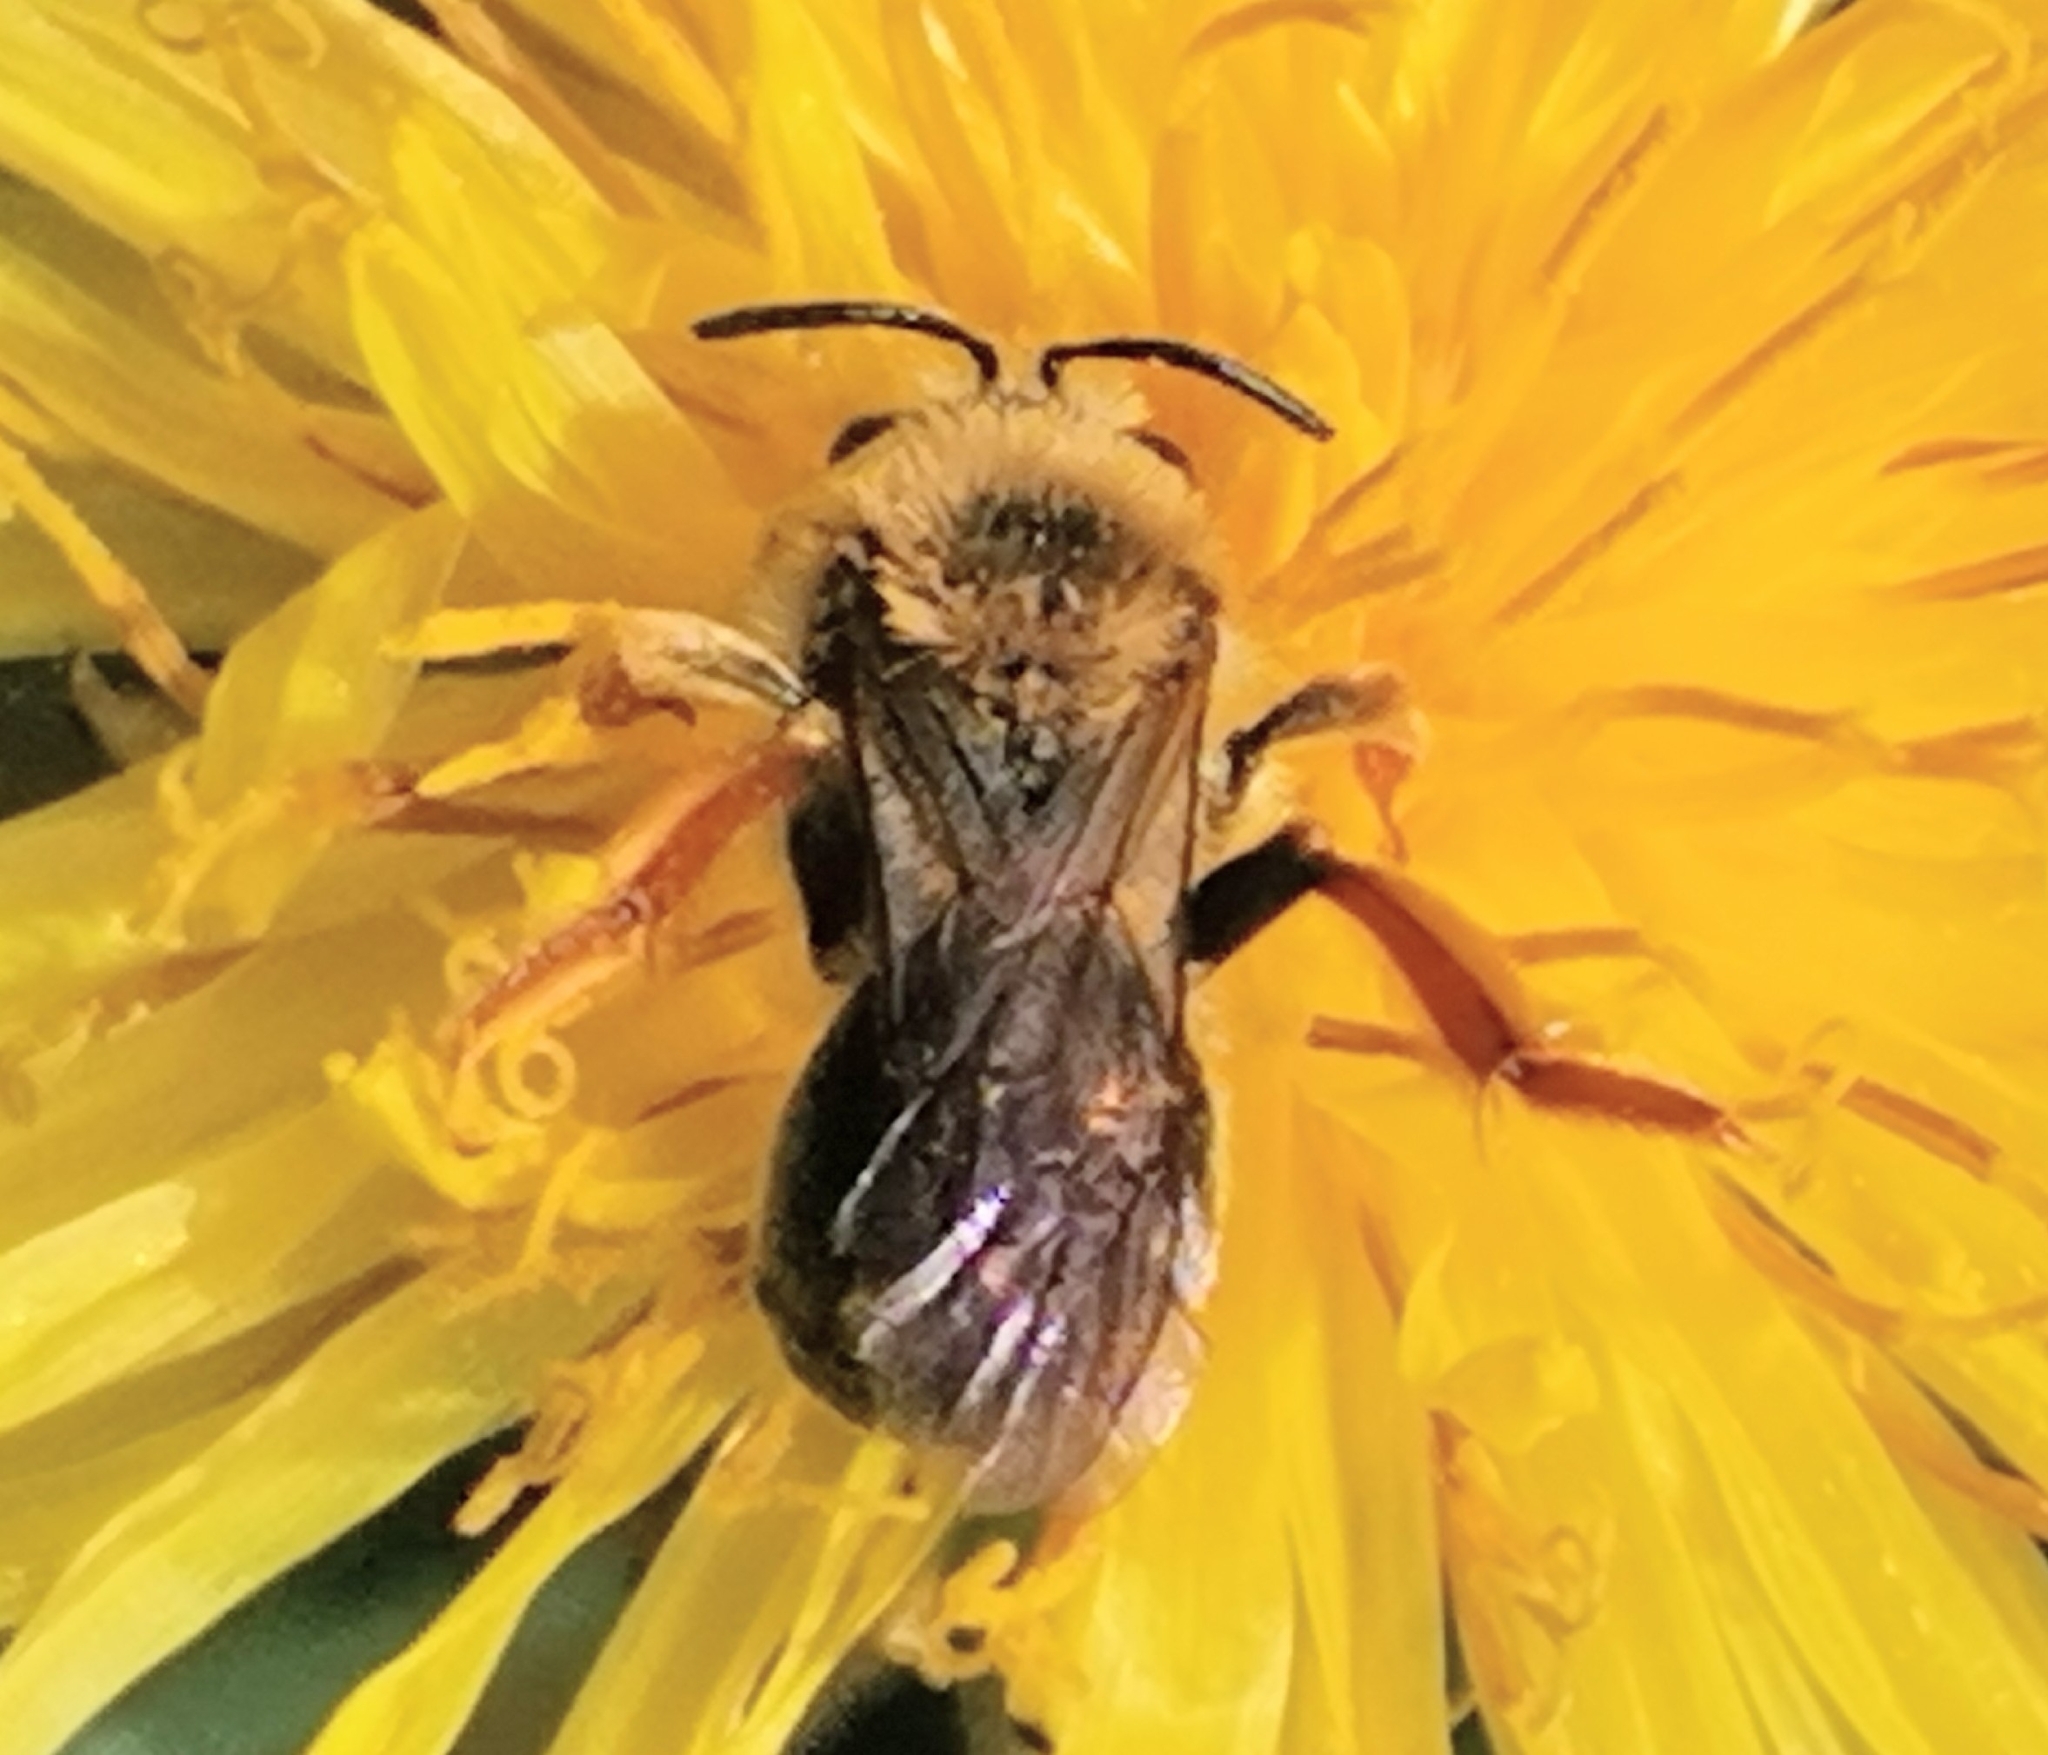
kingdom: Animalia
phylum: Arthropoda
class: Insecta
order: Hymenoptera
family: Andrenidae
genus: Andrena
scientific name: Andrena haemorrhoa
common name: Early mining bee
